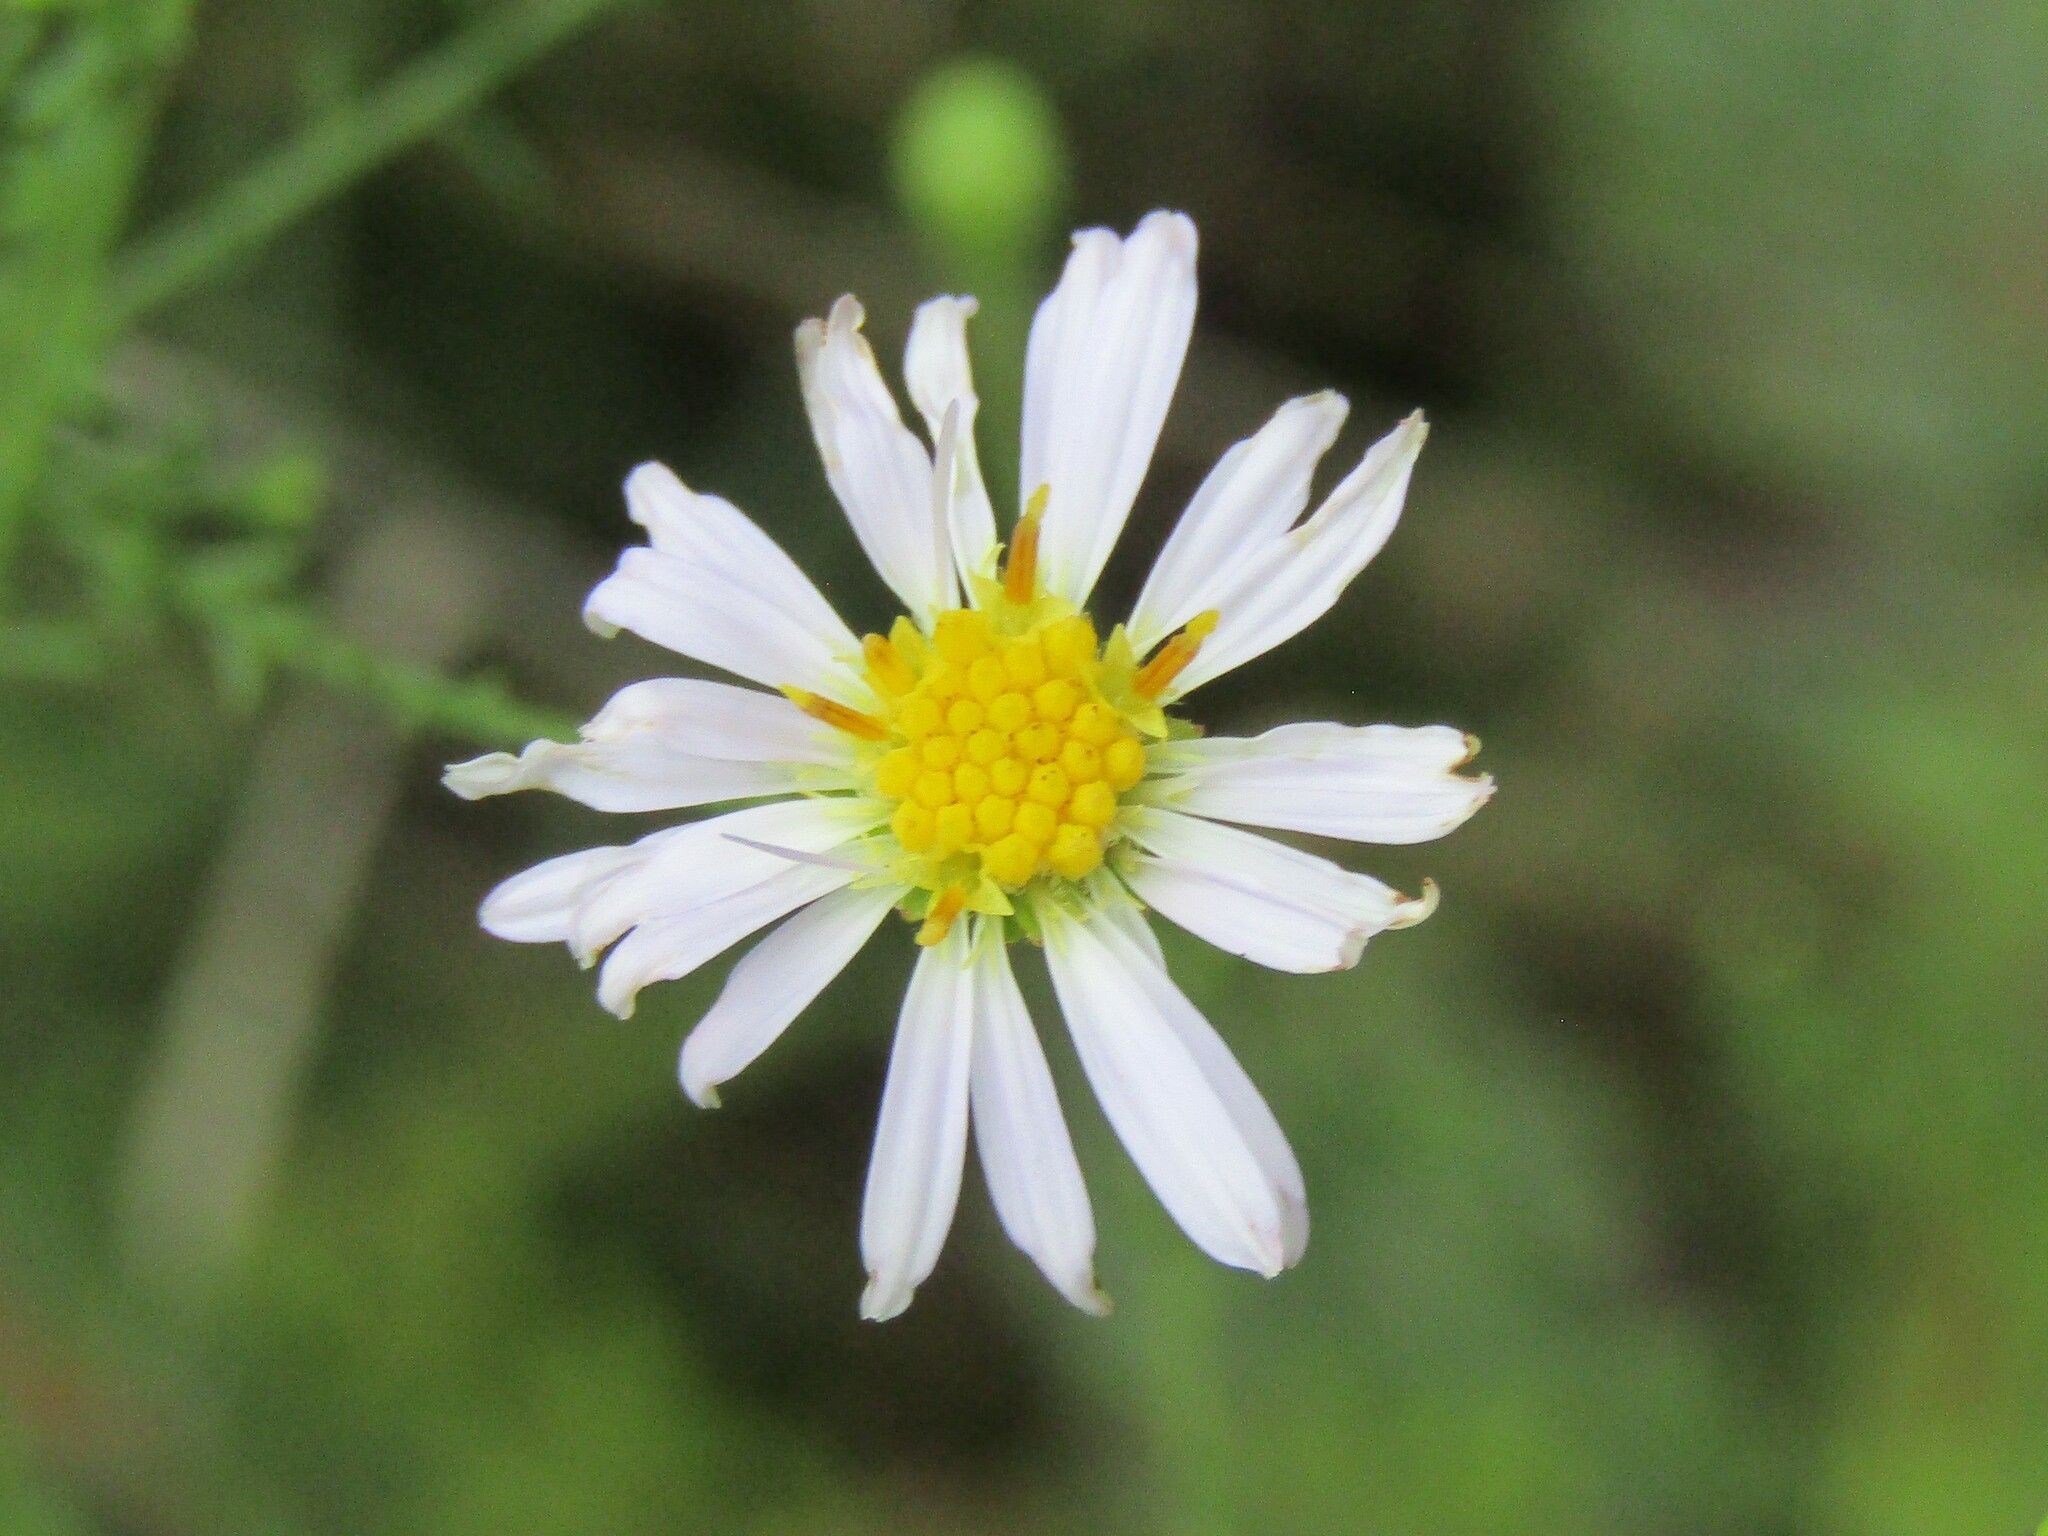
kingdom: Plantae
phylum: Tracheophyta
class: Magnoliopsida
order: Asterales
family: Asteraceae
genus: Symphyotrichum
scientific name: Symphyotrichum dumosum
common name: Bushy aster
